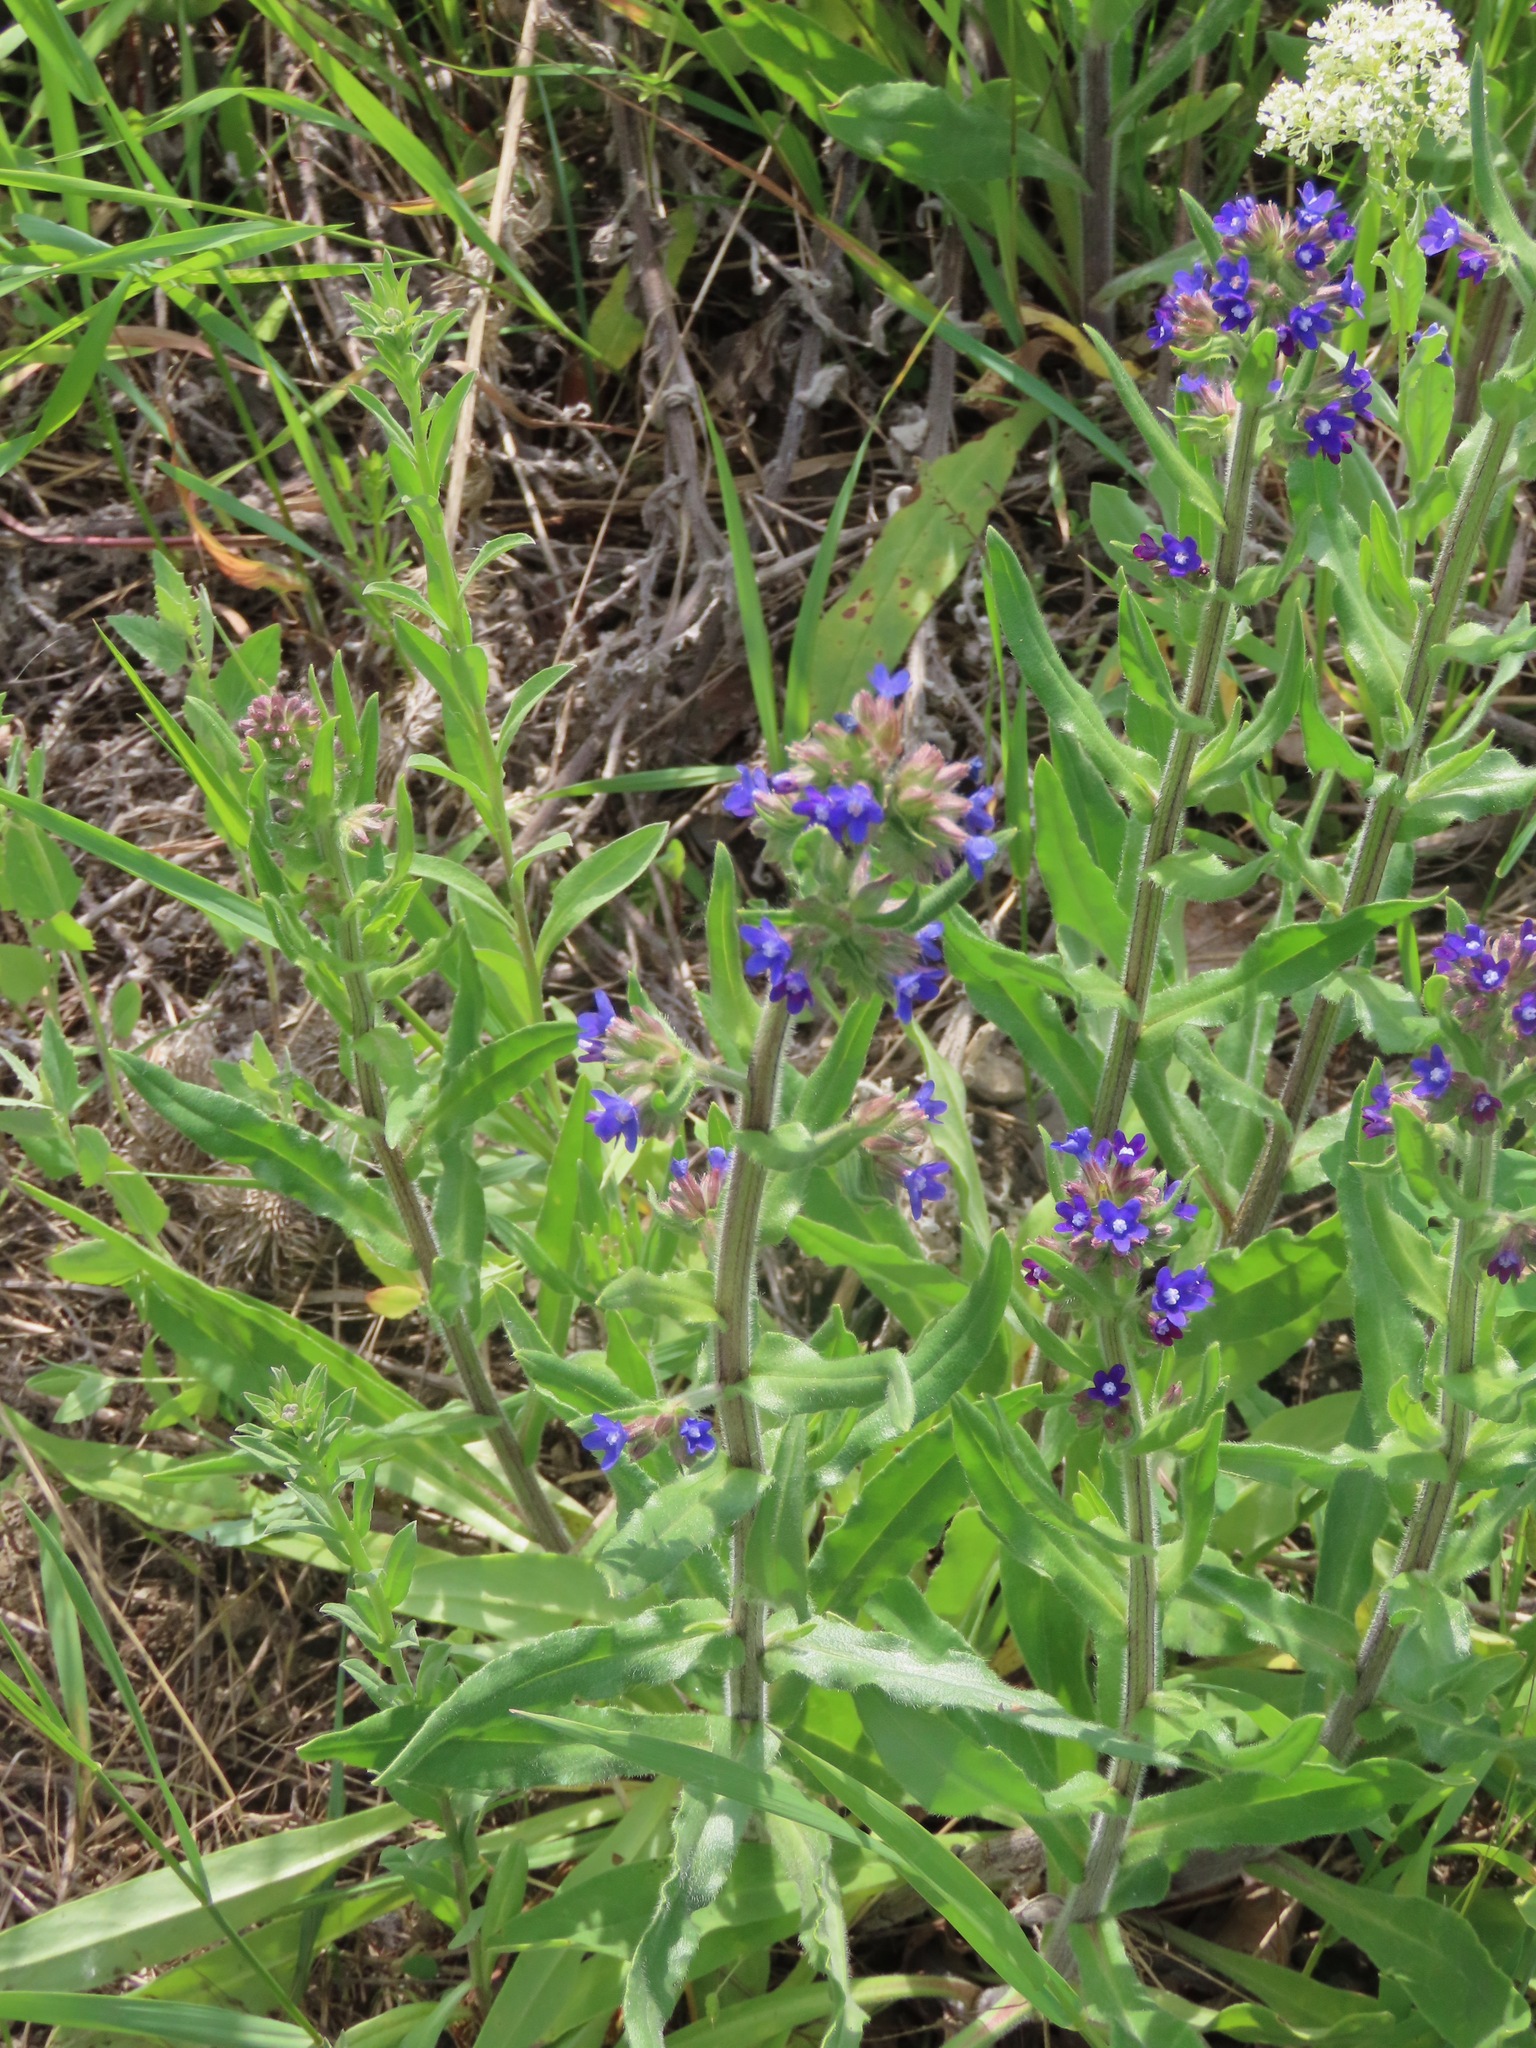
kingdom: Plantae
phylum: Tracheophyta
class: Magnoliopsida
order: Boraginales
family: Boraginaceae
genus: Anchusa
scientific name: Anchusa officinalis
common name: Alkanet
